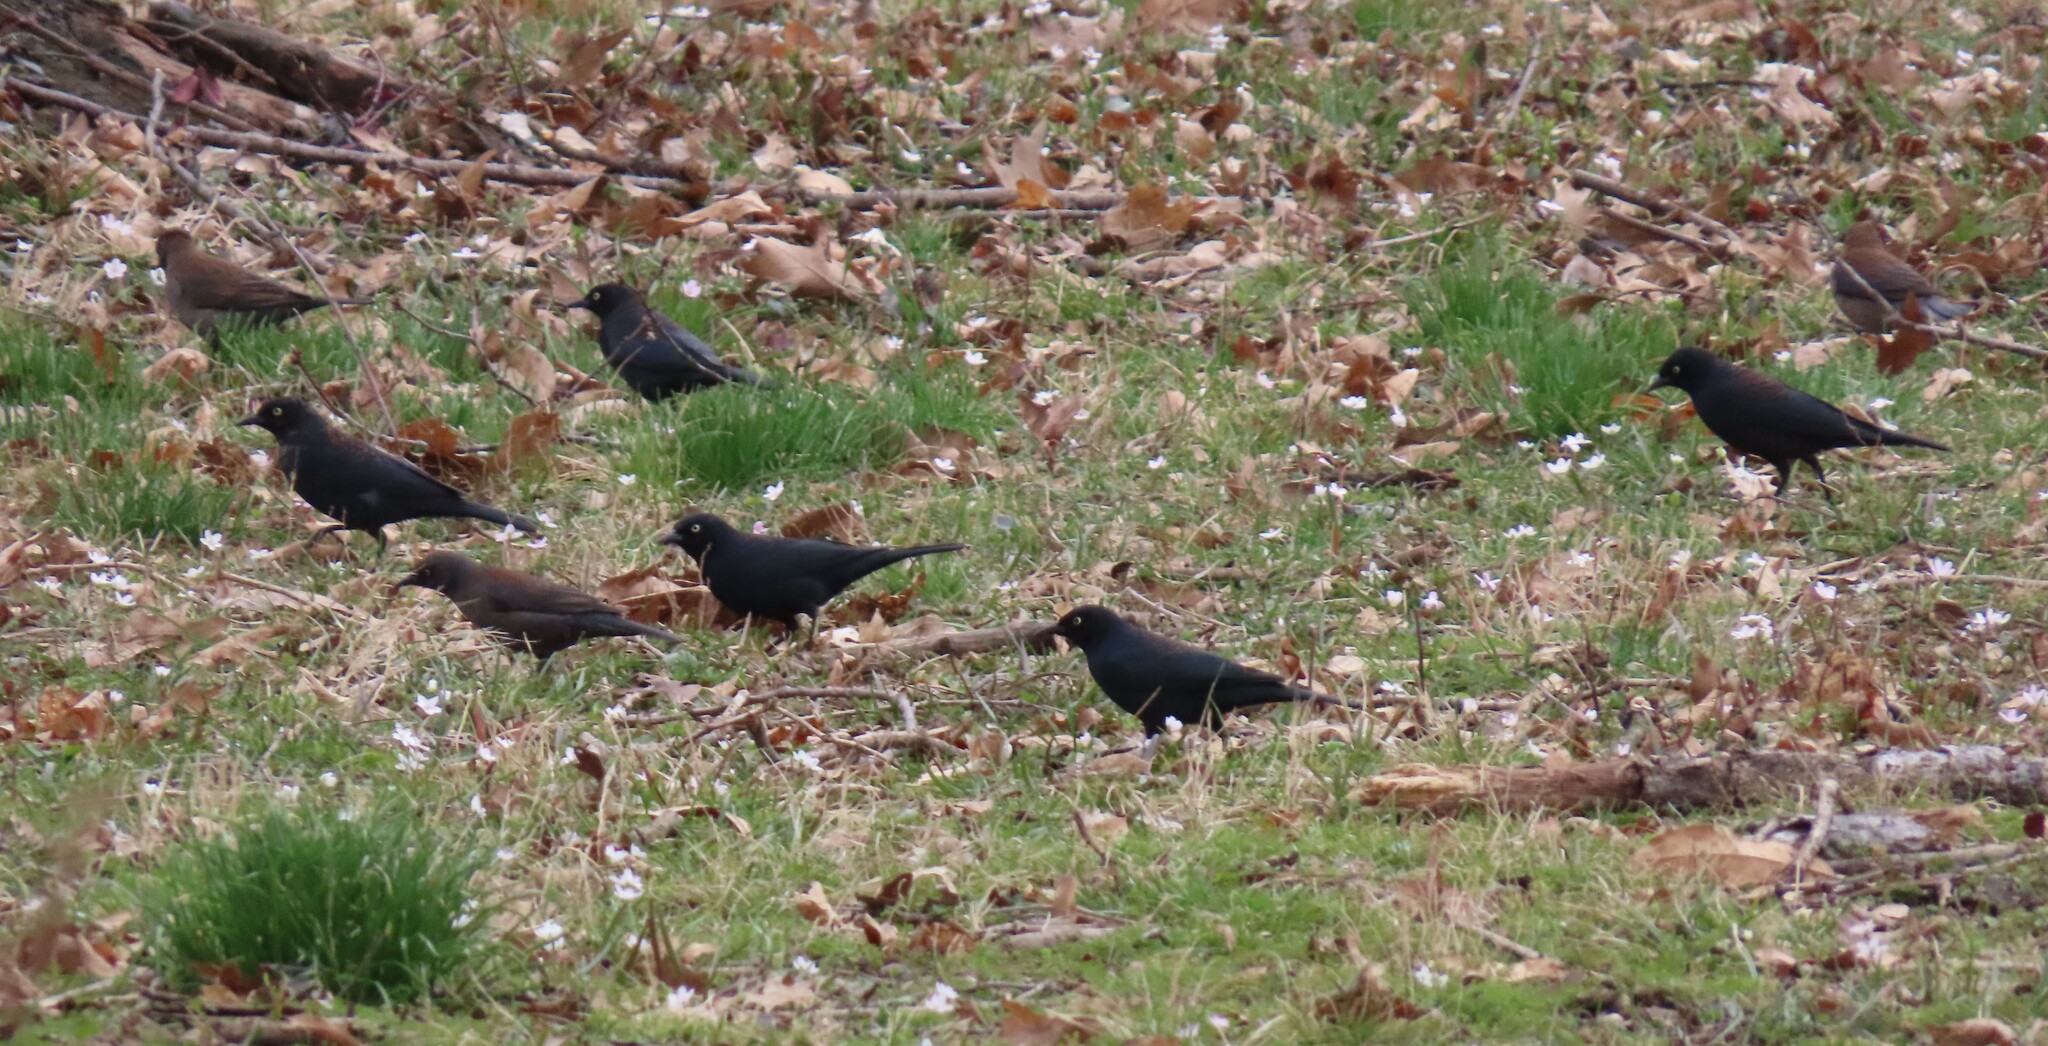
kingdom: Animalia
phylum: Chordata
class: Aves
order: Passeriformes
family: Icteridae
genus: Euphagus
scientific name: Euphagus carolinus
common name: Rusty blackbird
